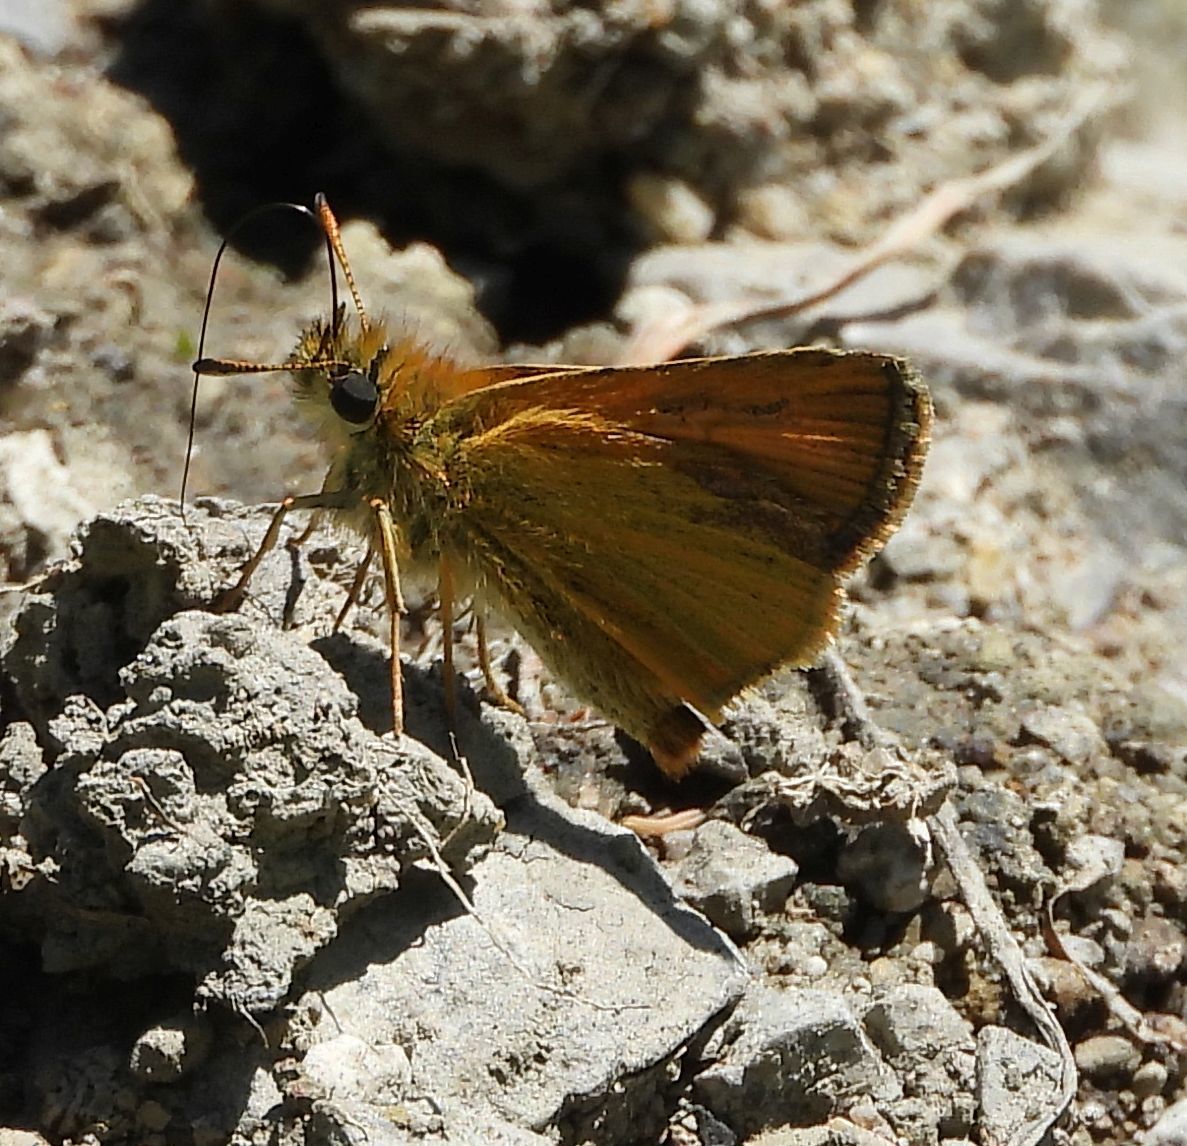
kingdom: Animalia
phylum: Arthropoda
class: Insecta
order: Lepidoptera
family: Hesperiidae
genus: Thymelicus
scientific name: Thymelicus lineola
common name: Essex skipper
